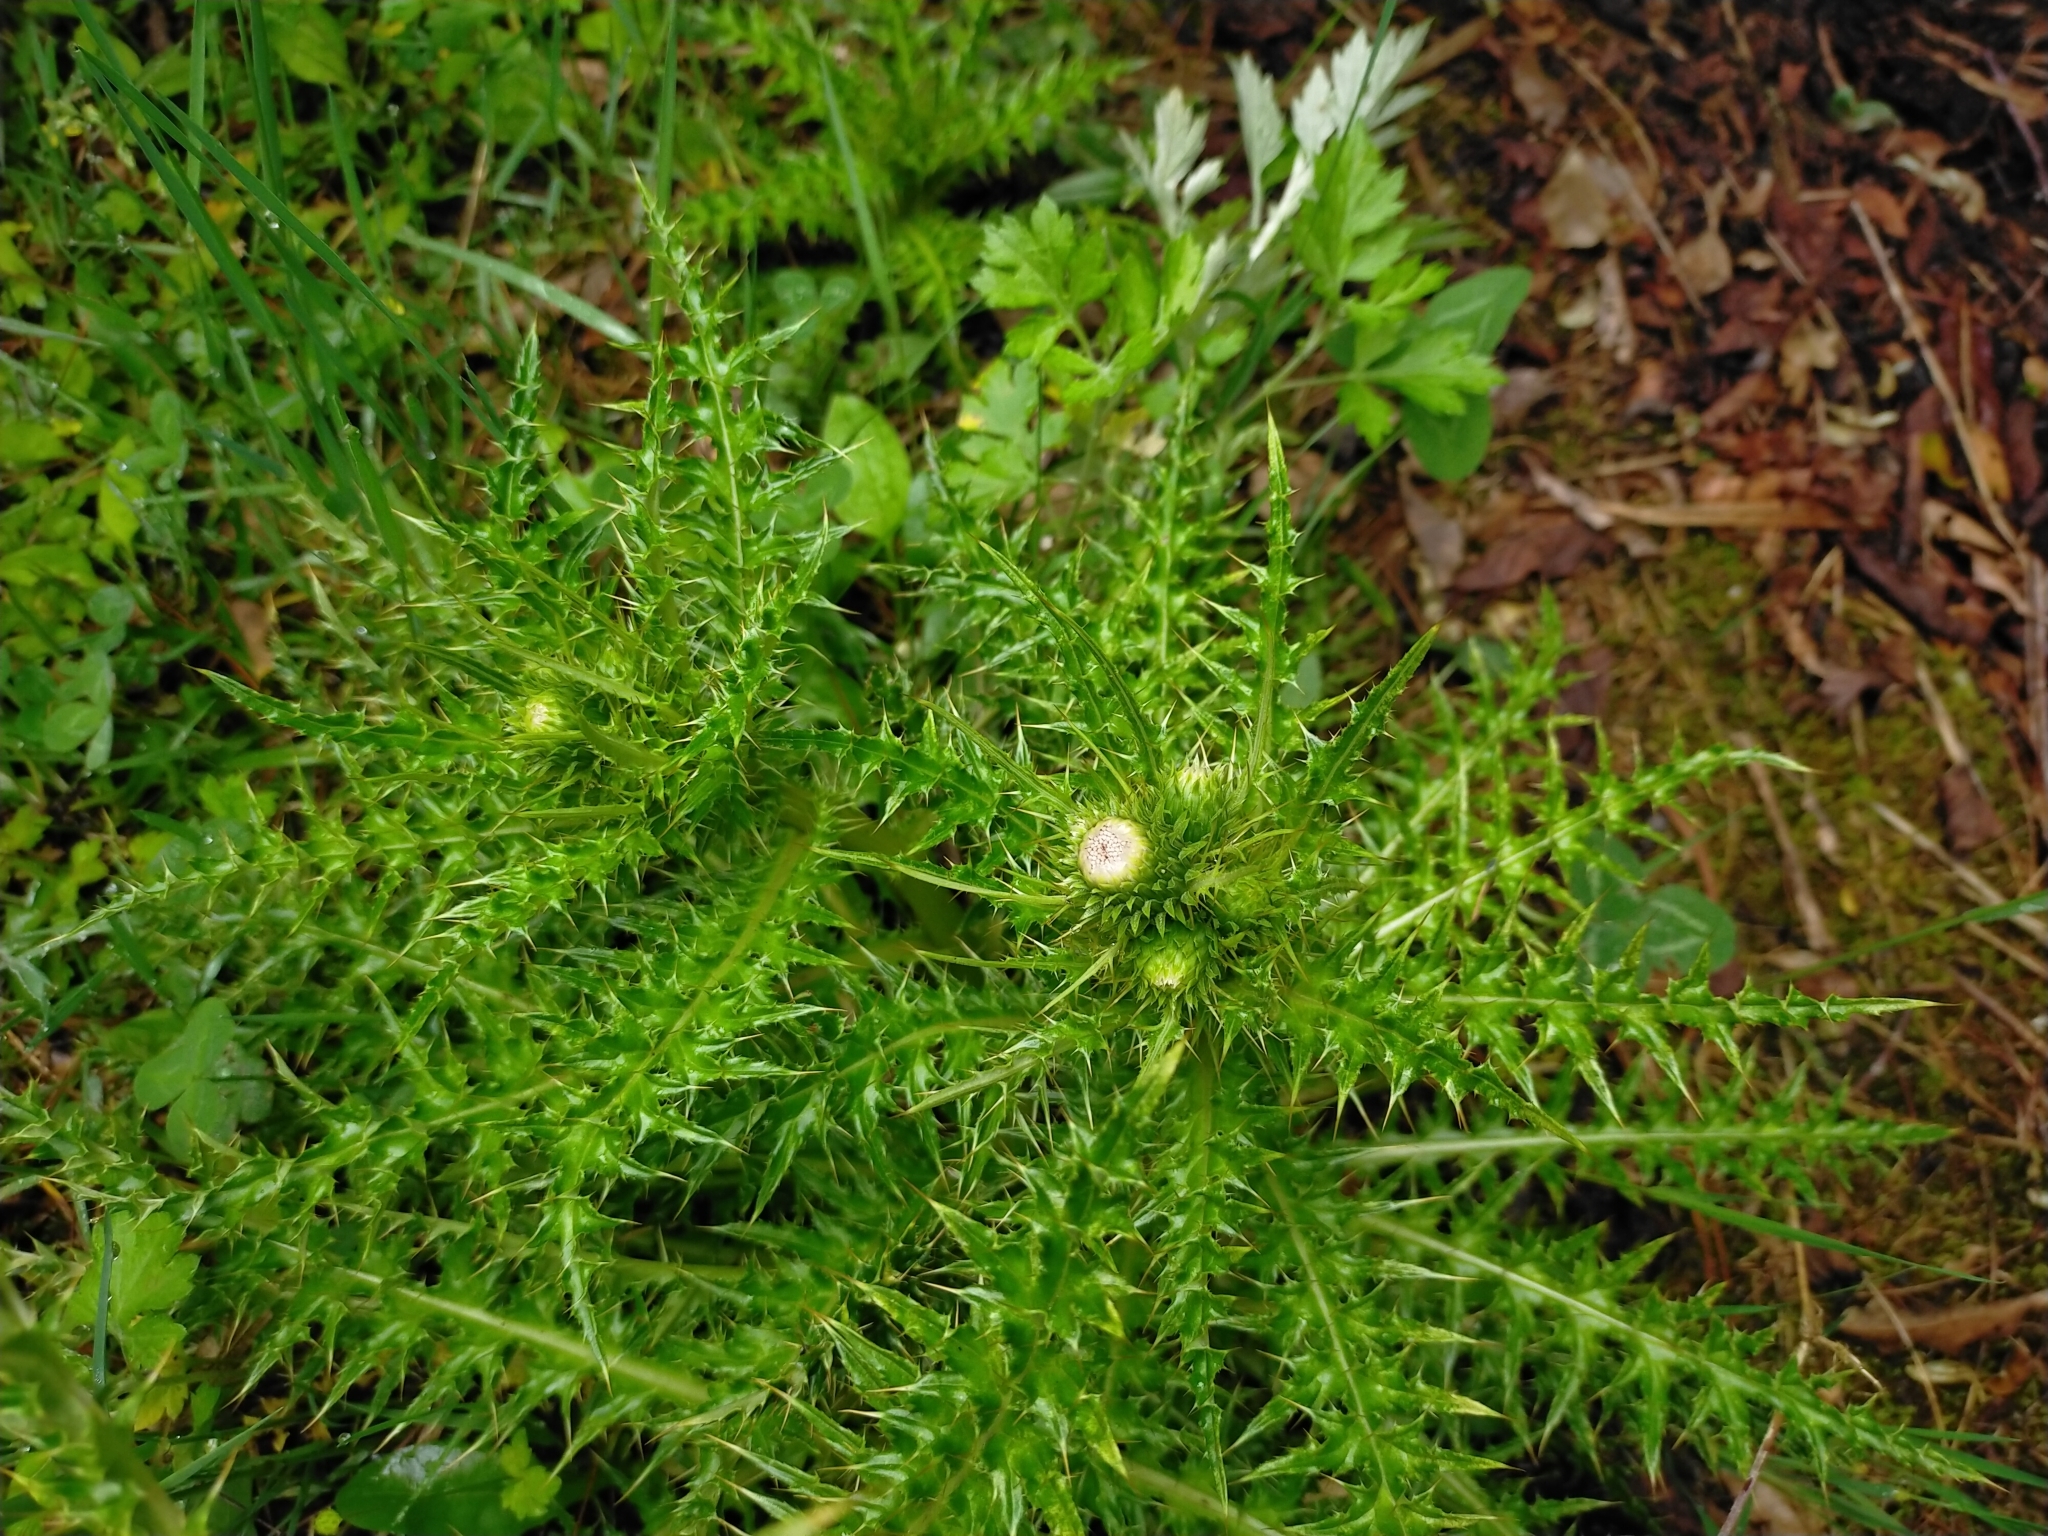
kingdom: Plantae
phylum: Tracheophyta
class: Magnoliopsida
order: Asterales
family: Asteraceae
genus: Cirsium
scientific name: Cirsium arisanense
